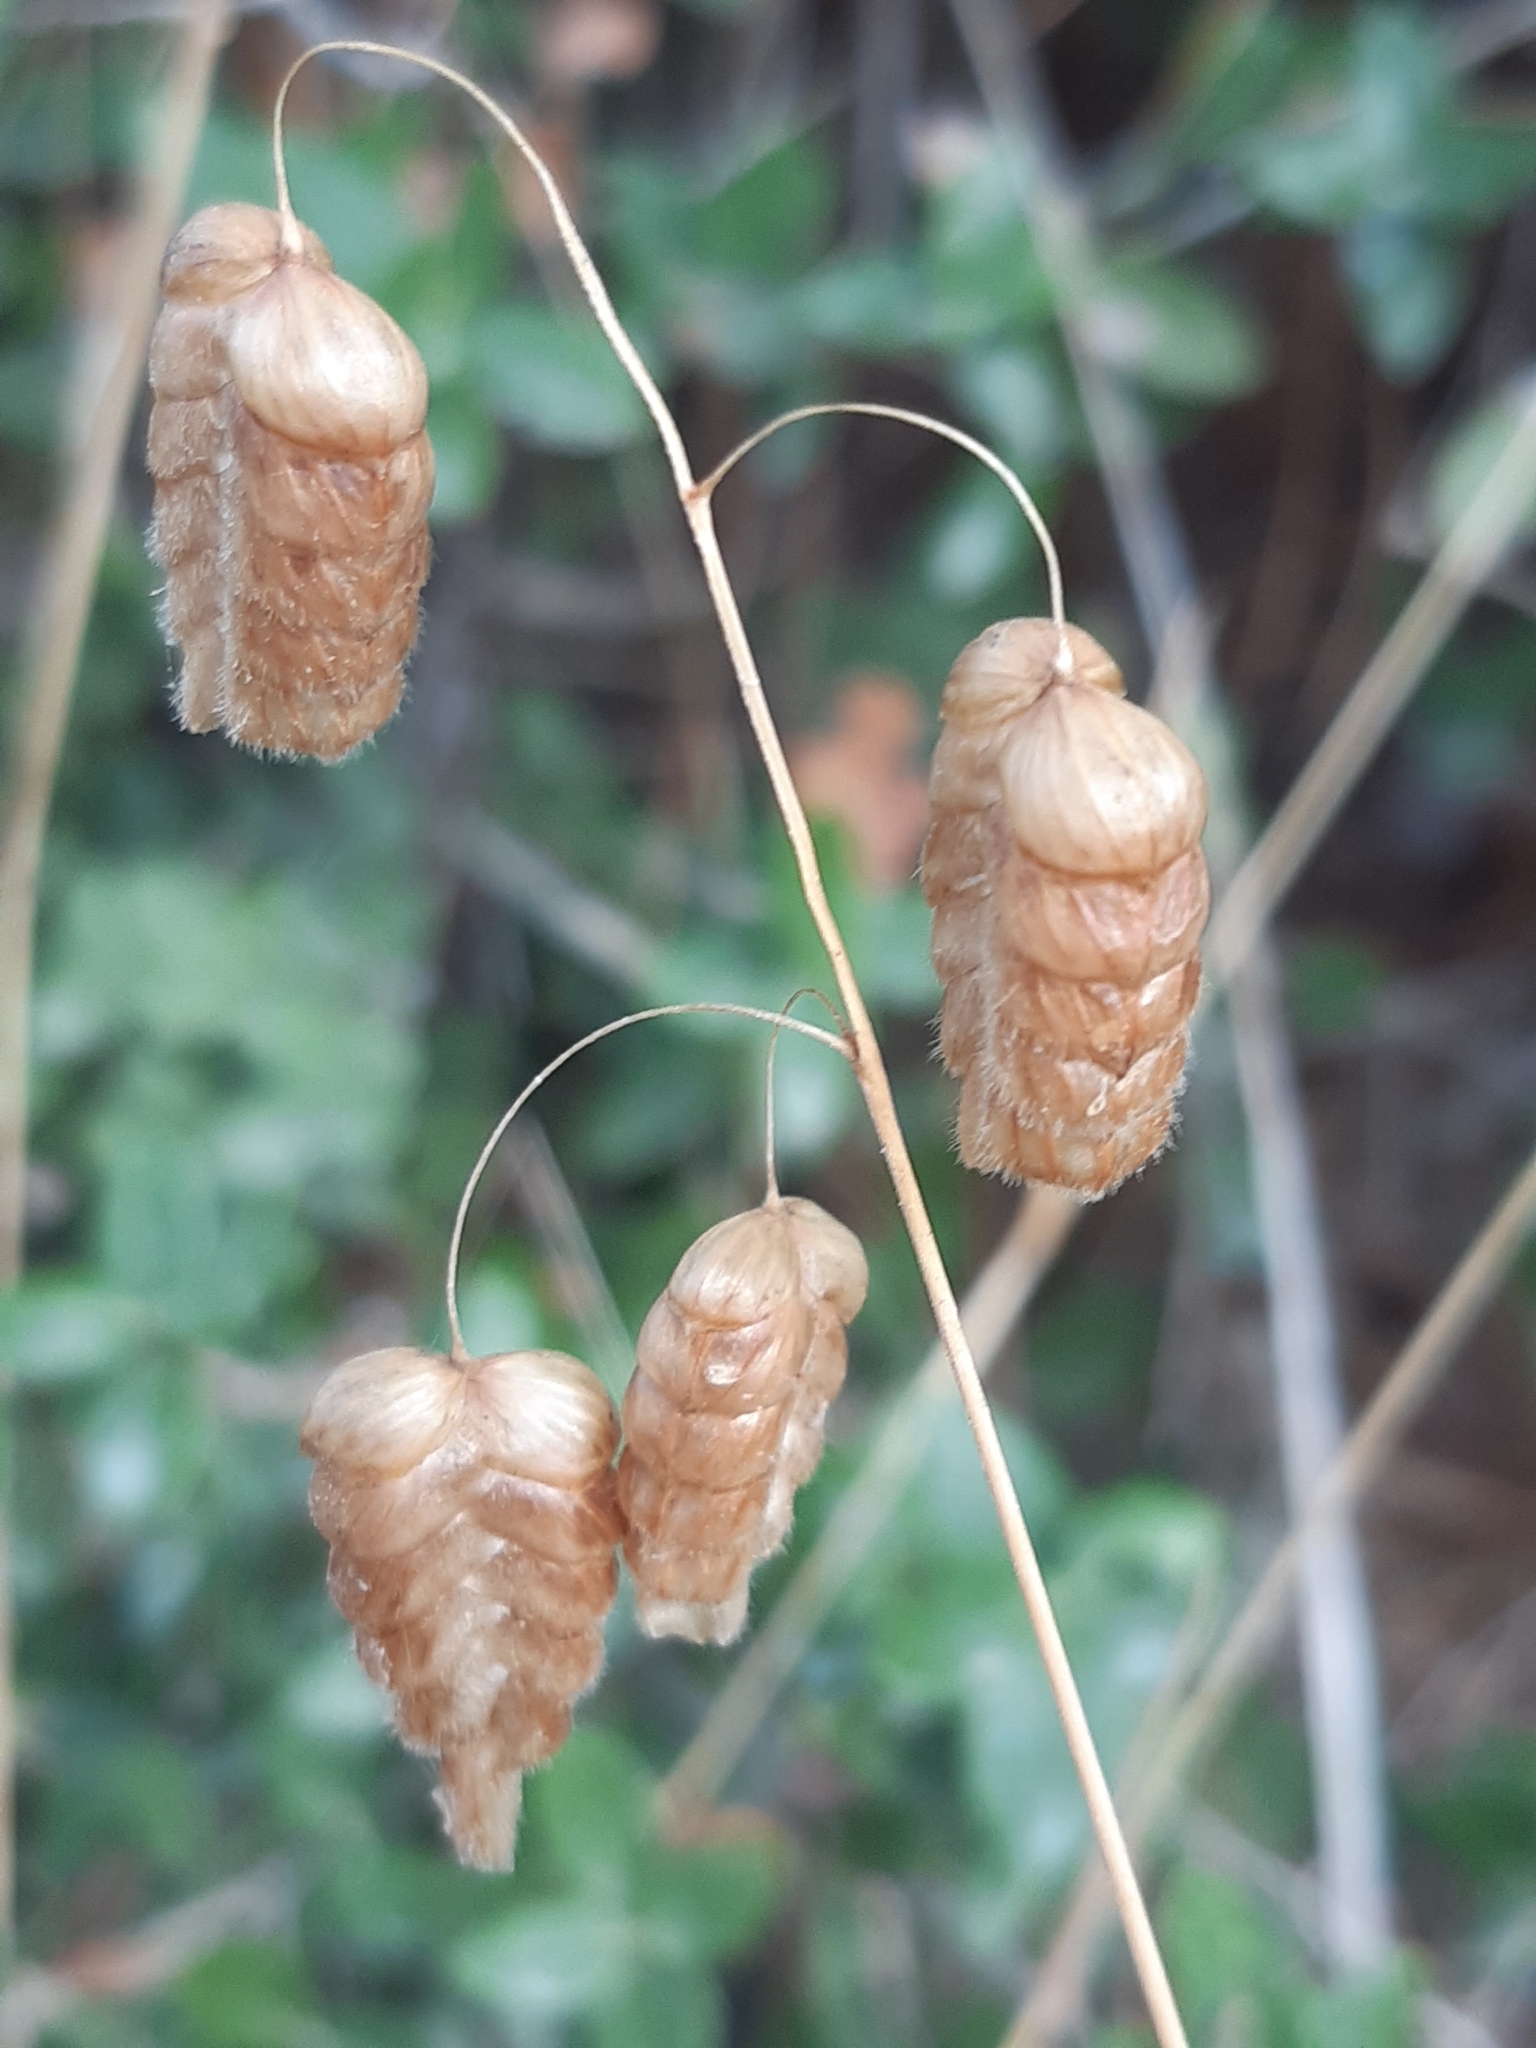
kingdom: Plantae
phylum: Tracheophyta
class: Liliopsida
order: Poales
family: Poaceae
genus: Briza
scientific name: Briza maxima
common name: Big quakinggrass
